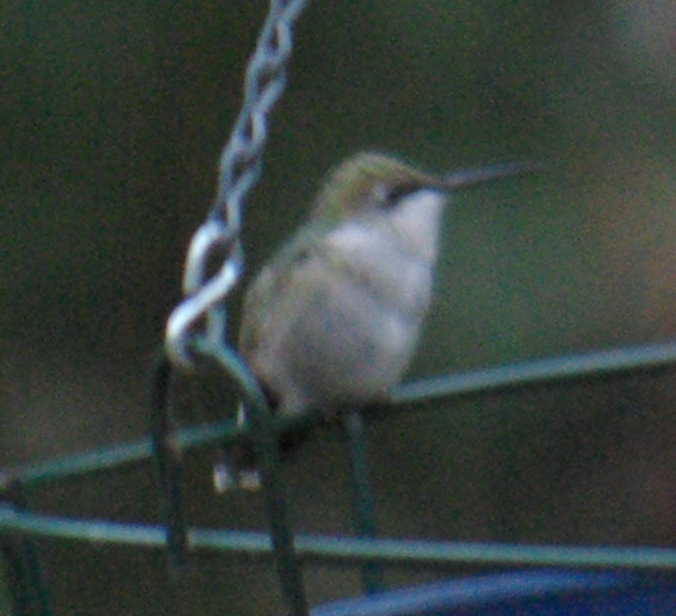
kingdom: Animalia
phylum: Chordata
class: Aves
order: Apodiformes
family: Trochilidae
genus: Archilochus
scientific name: Archilochus colubris
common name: Ruby-throated hummingbird
